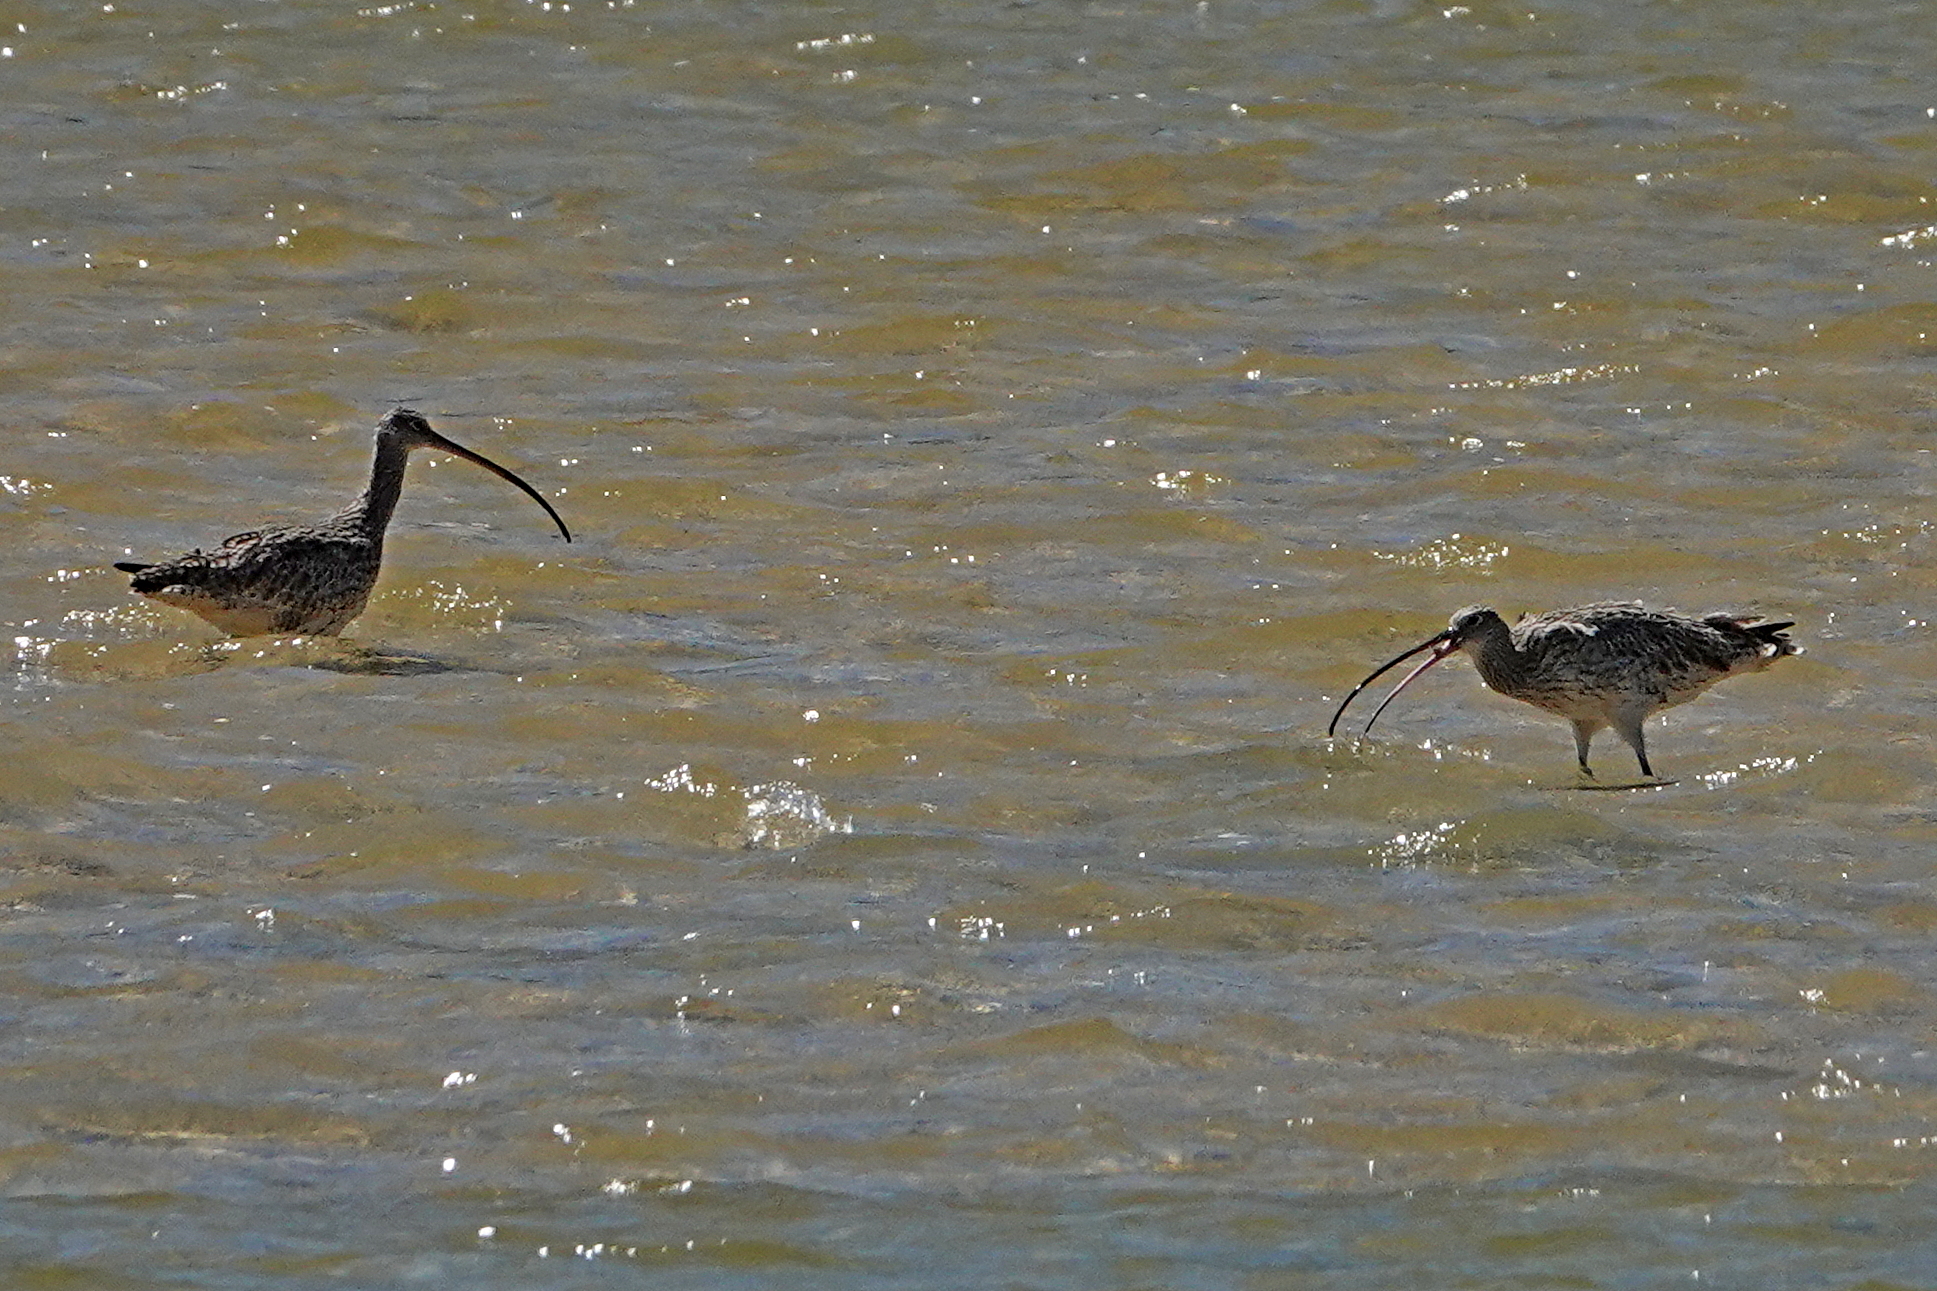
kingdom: Animalia
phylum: Chordata
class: Aves
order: Charadriiformes
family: Scolopacidae
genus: Numenius
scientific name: Numenius madagascariensis
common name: Far eastern curlew
